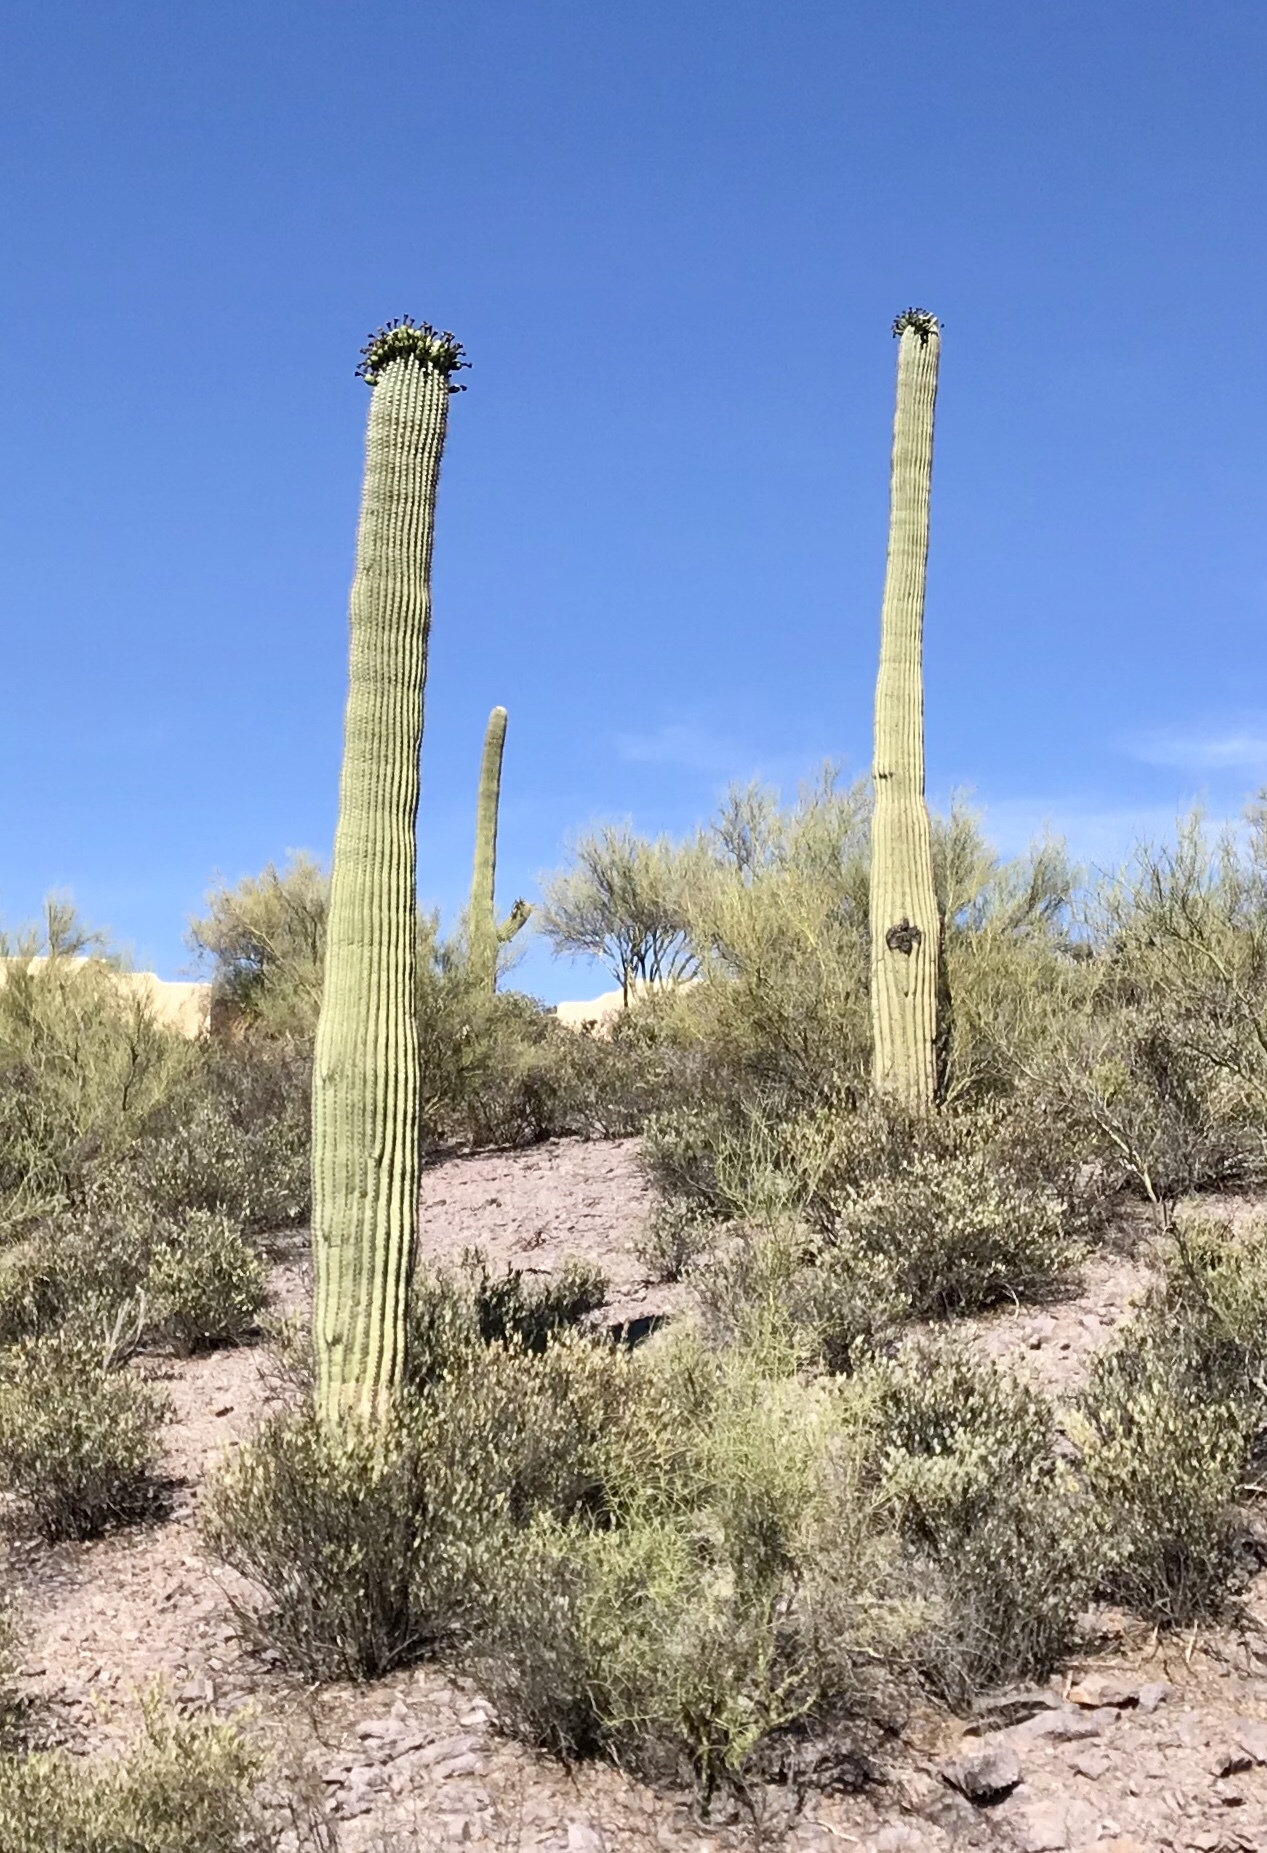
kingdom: Plantae
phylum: Tracheophyta
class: Magnoliopsida
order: Caryophyllales
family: Cactaceae
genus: Carnegiea
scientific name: Carnegiea gigantea
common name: Saguaro
